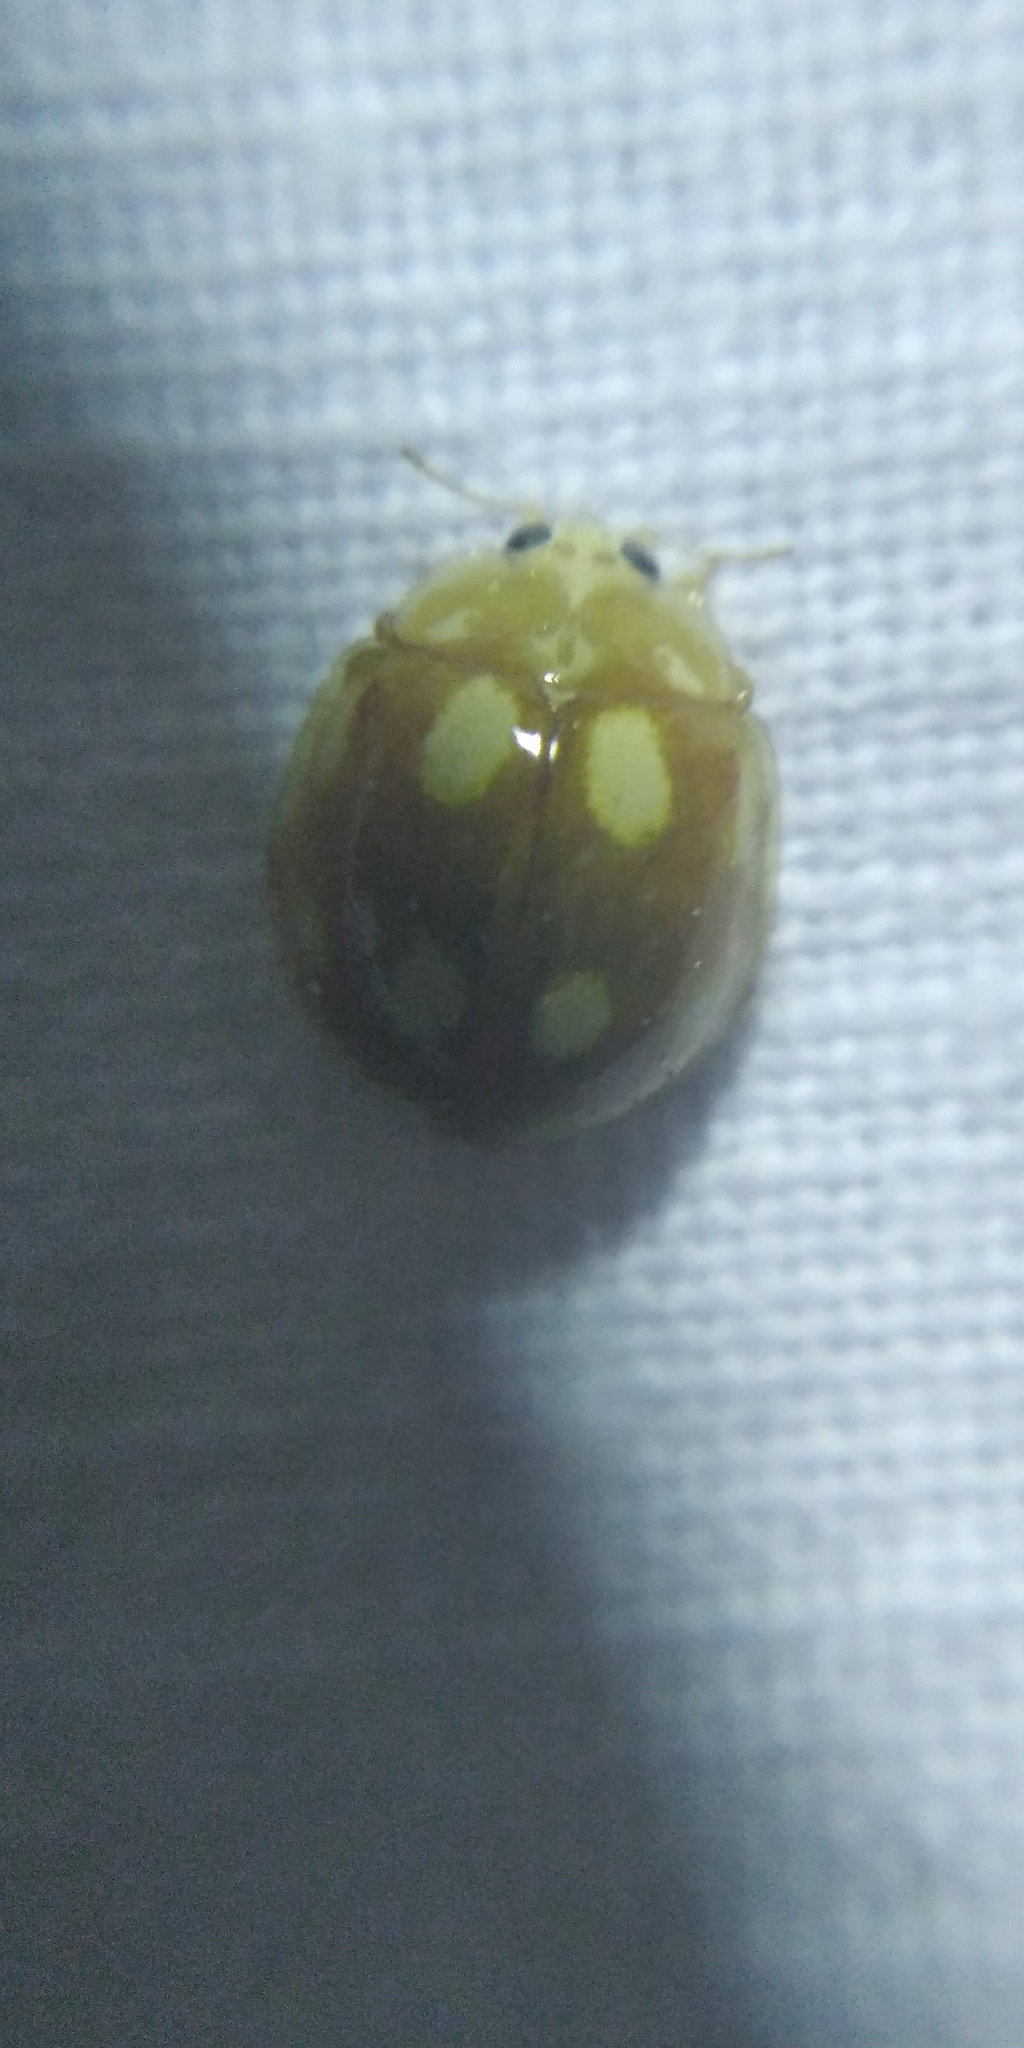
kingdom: Animalia
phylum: Arthropoda
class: Insecta
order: Coleoptera
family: Coccinellidae
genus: Calvia
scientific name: Calvia decemguttata
